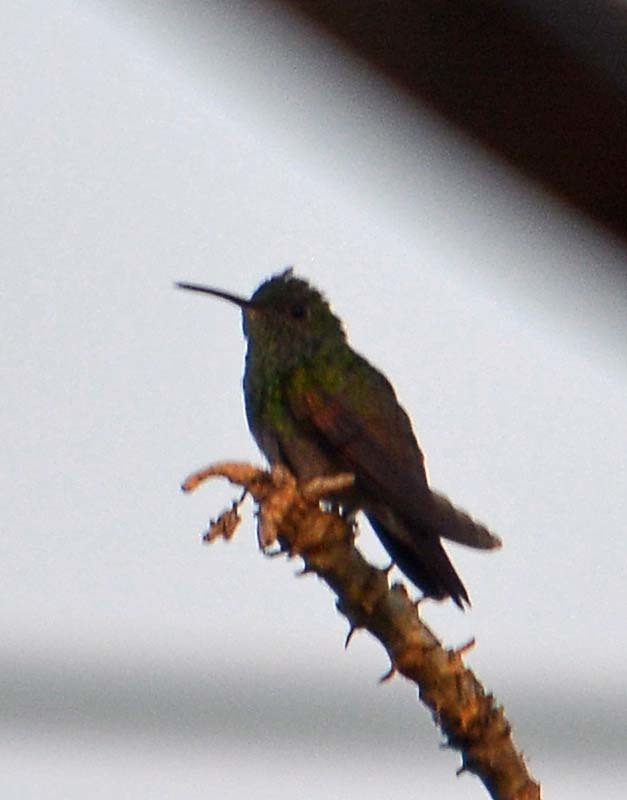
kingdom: Animalia
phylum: Chordata
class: Aves
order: Apodiformes
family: Trochilidae
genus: Saucerottia
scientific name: Saucerottia beryllina
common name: Berylline hummingbird
